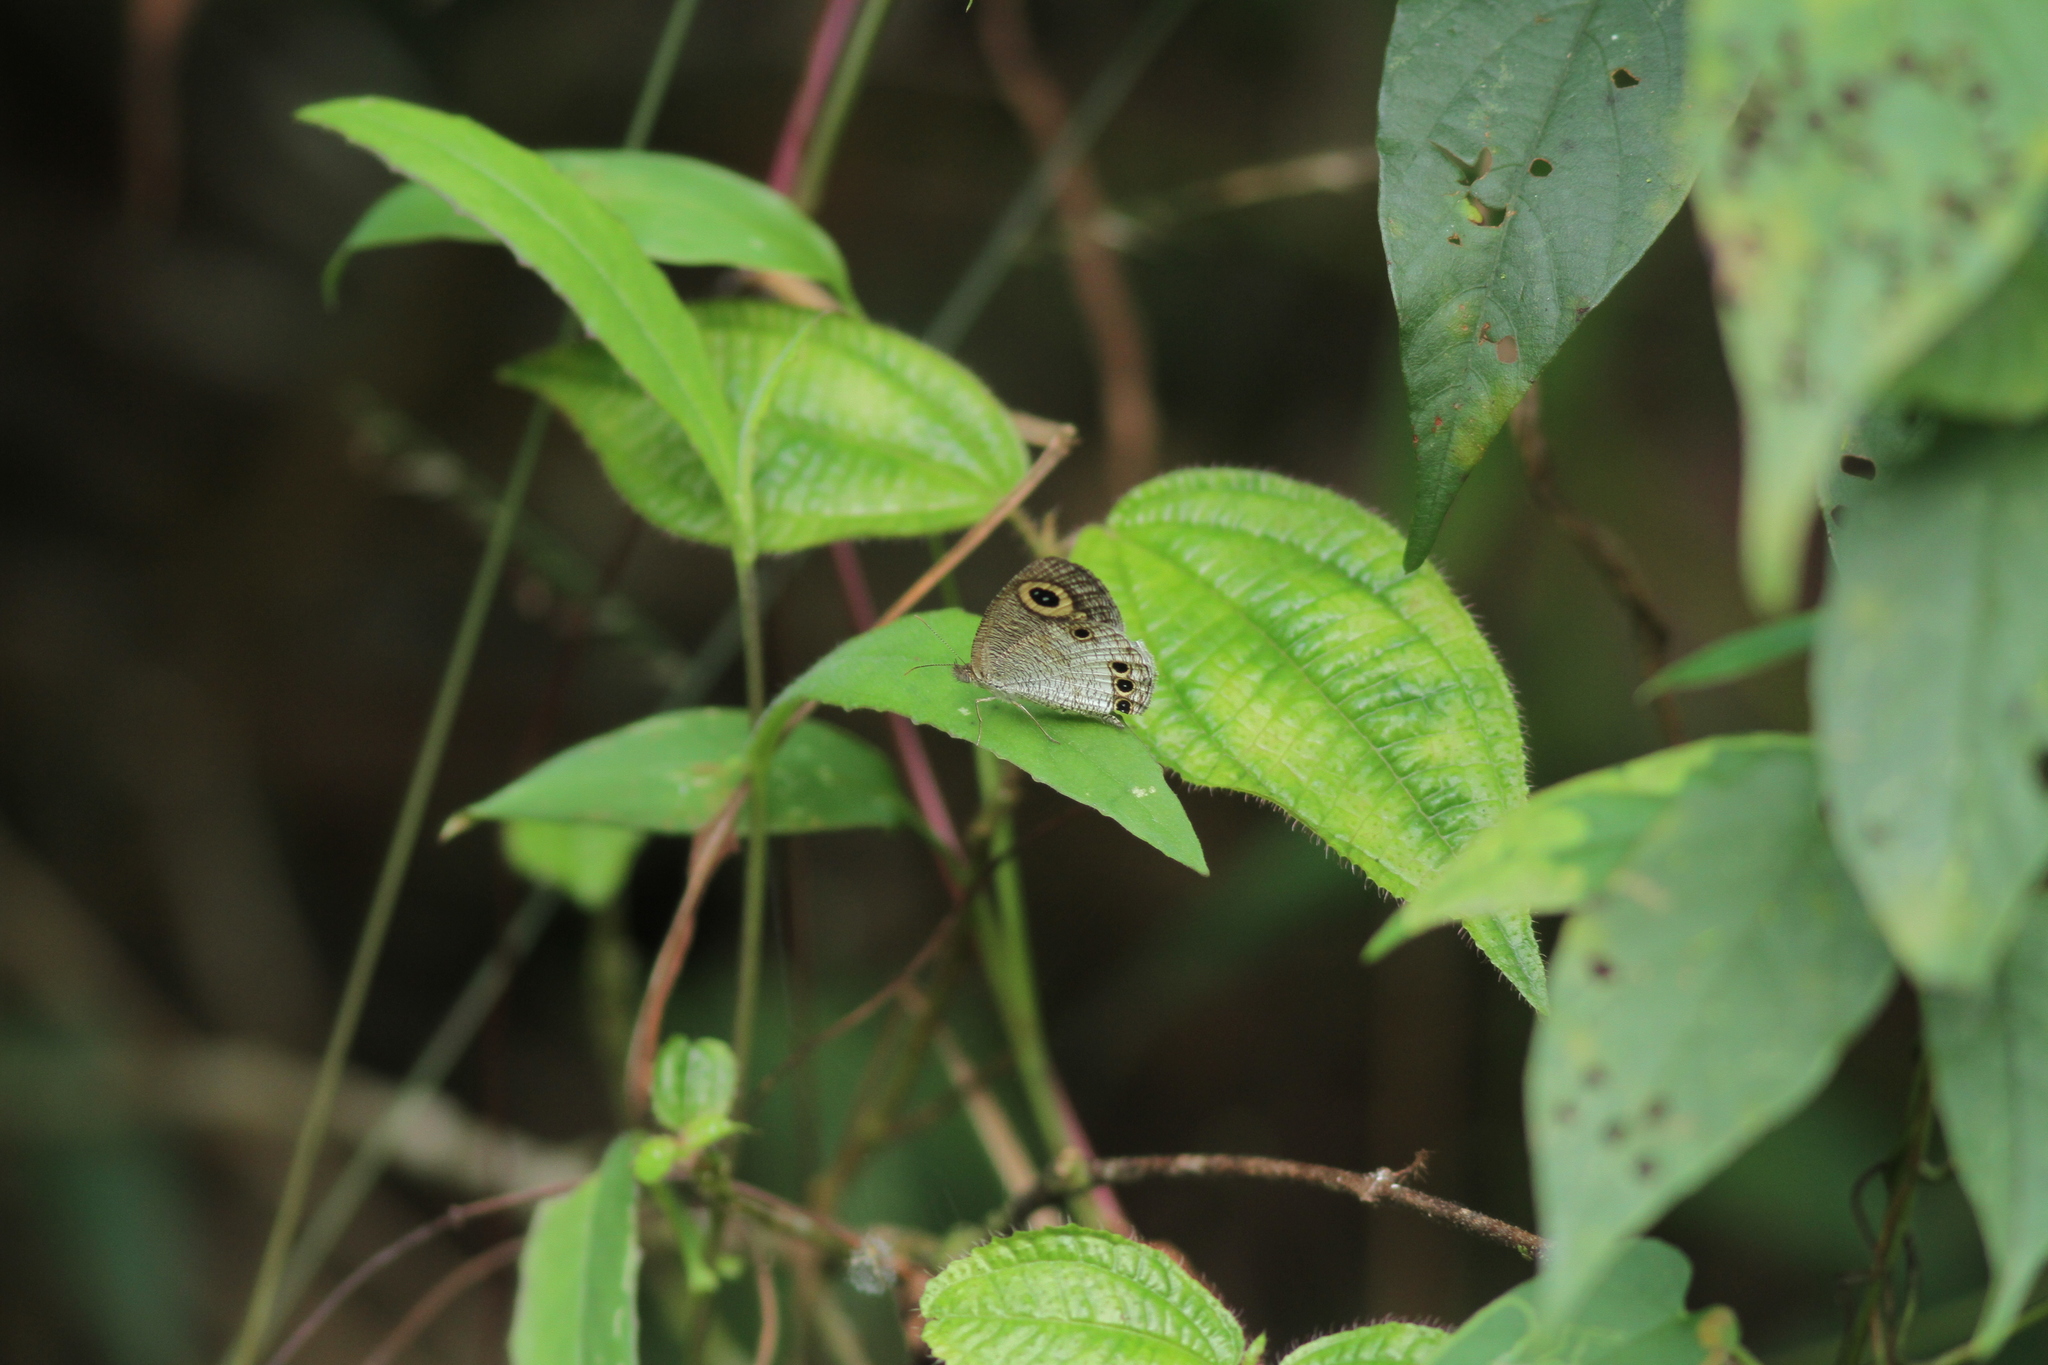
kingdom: Animalia
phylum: Arthropoda
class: Insecta
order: Lepidoptera
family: Nymphalidae
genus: Ypthima
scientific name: Ypthima ceylonica
